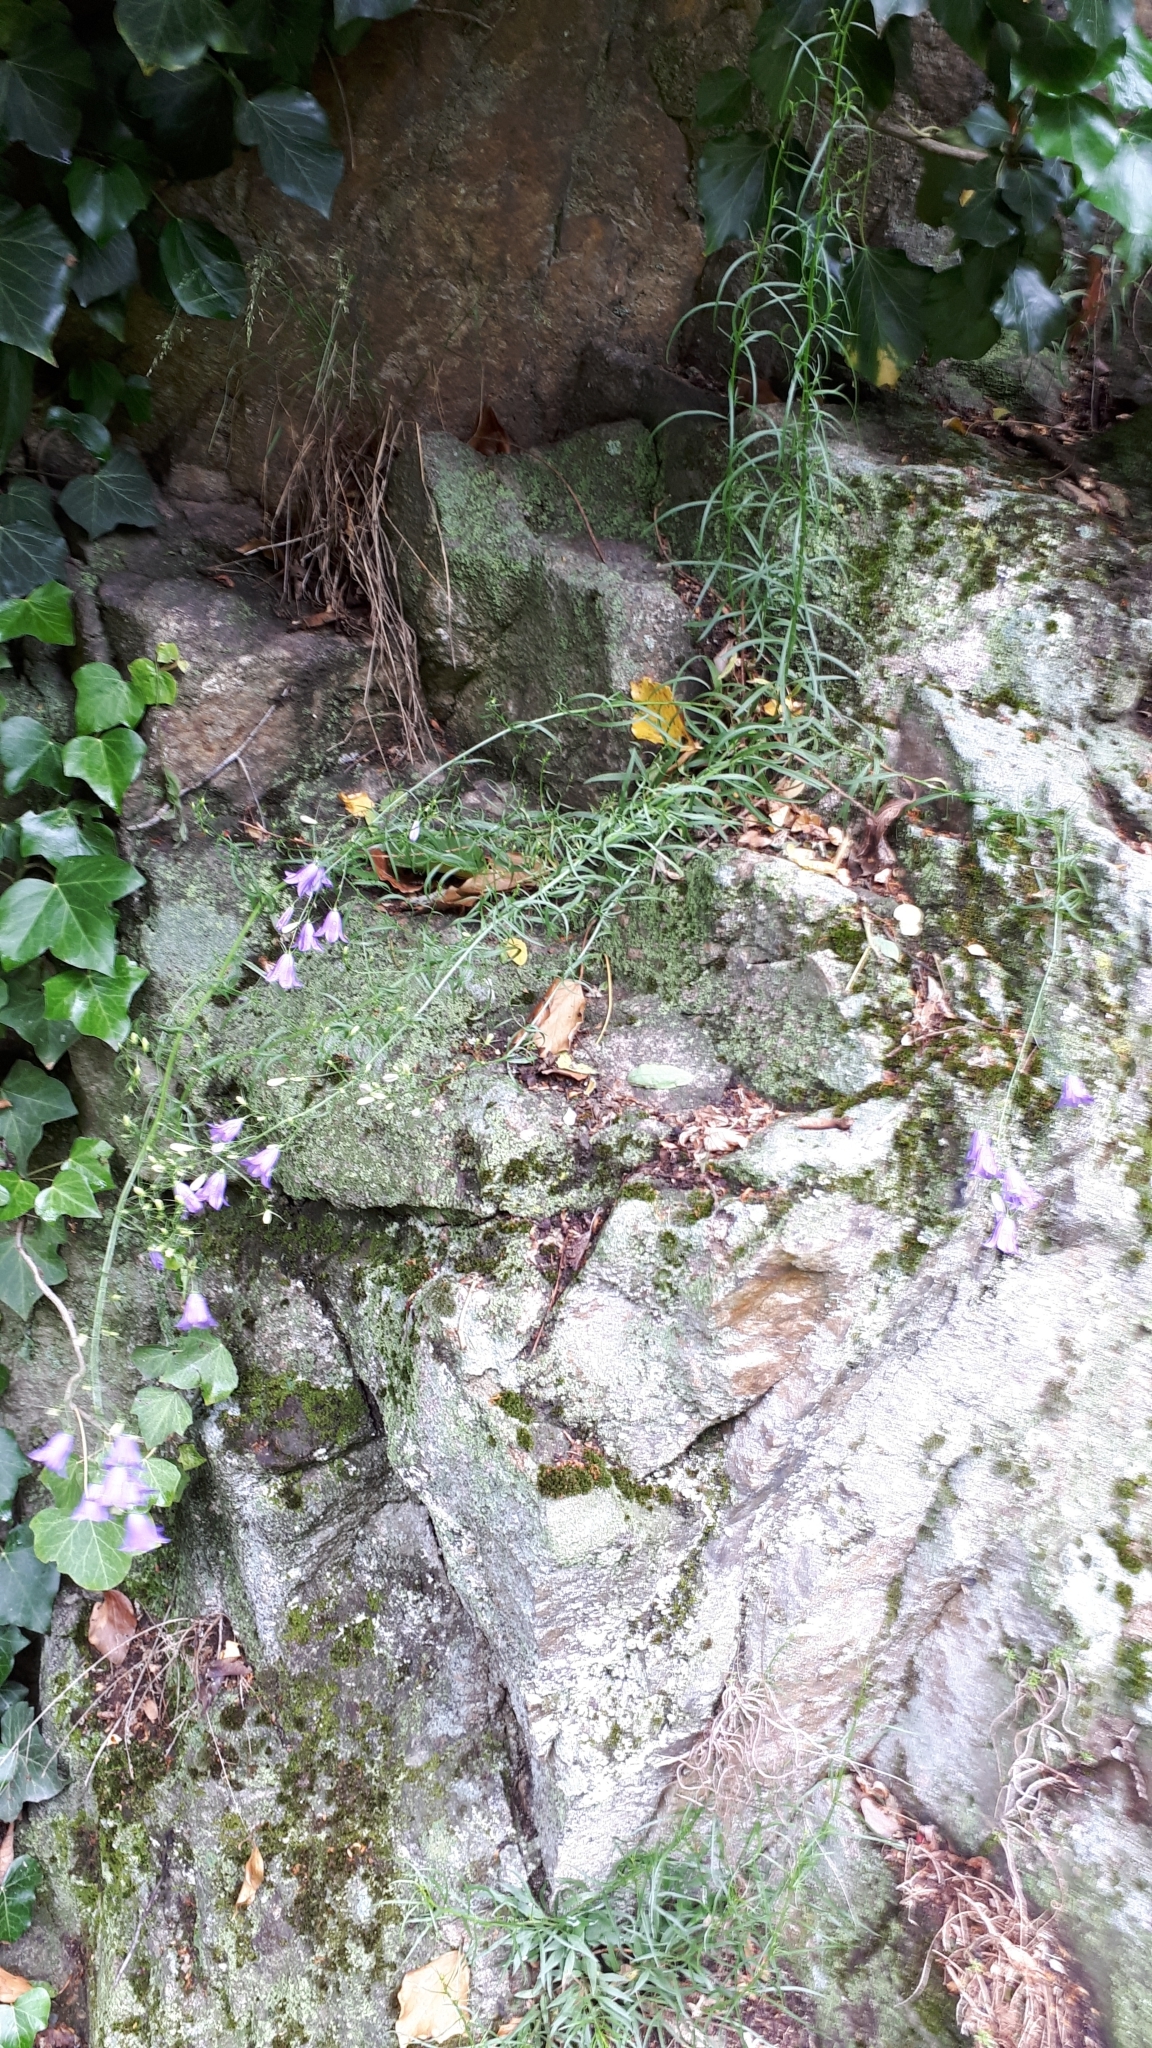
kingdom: Plantae
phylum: Tracheophyta
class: Magnoliopsida
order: Asterales
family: Campanulaceae
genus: Campanula
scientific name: Campanula rotundifolia
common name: Harebell
